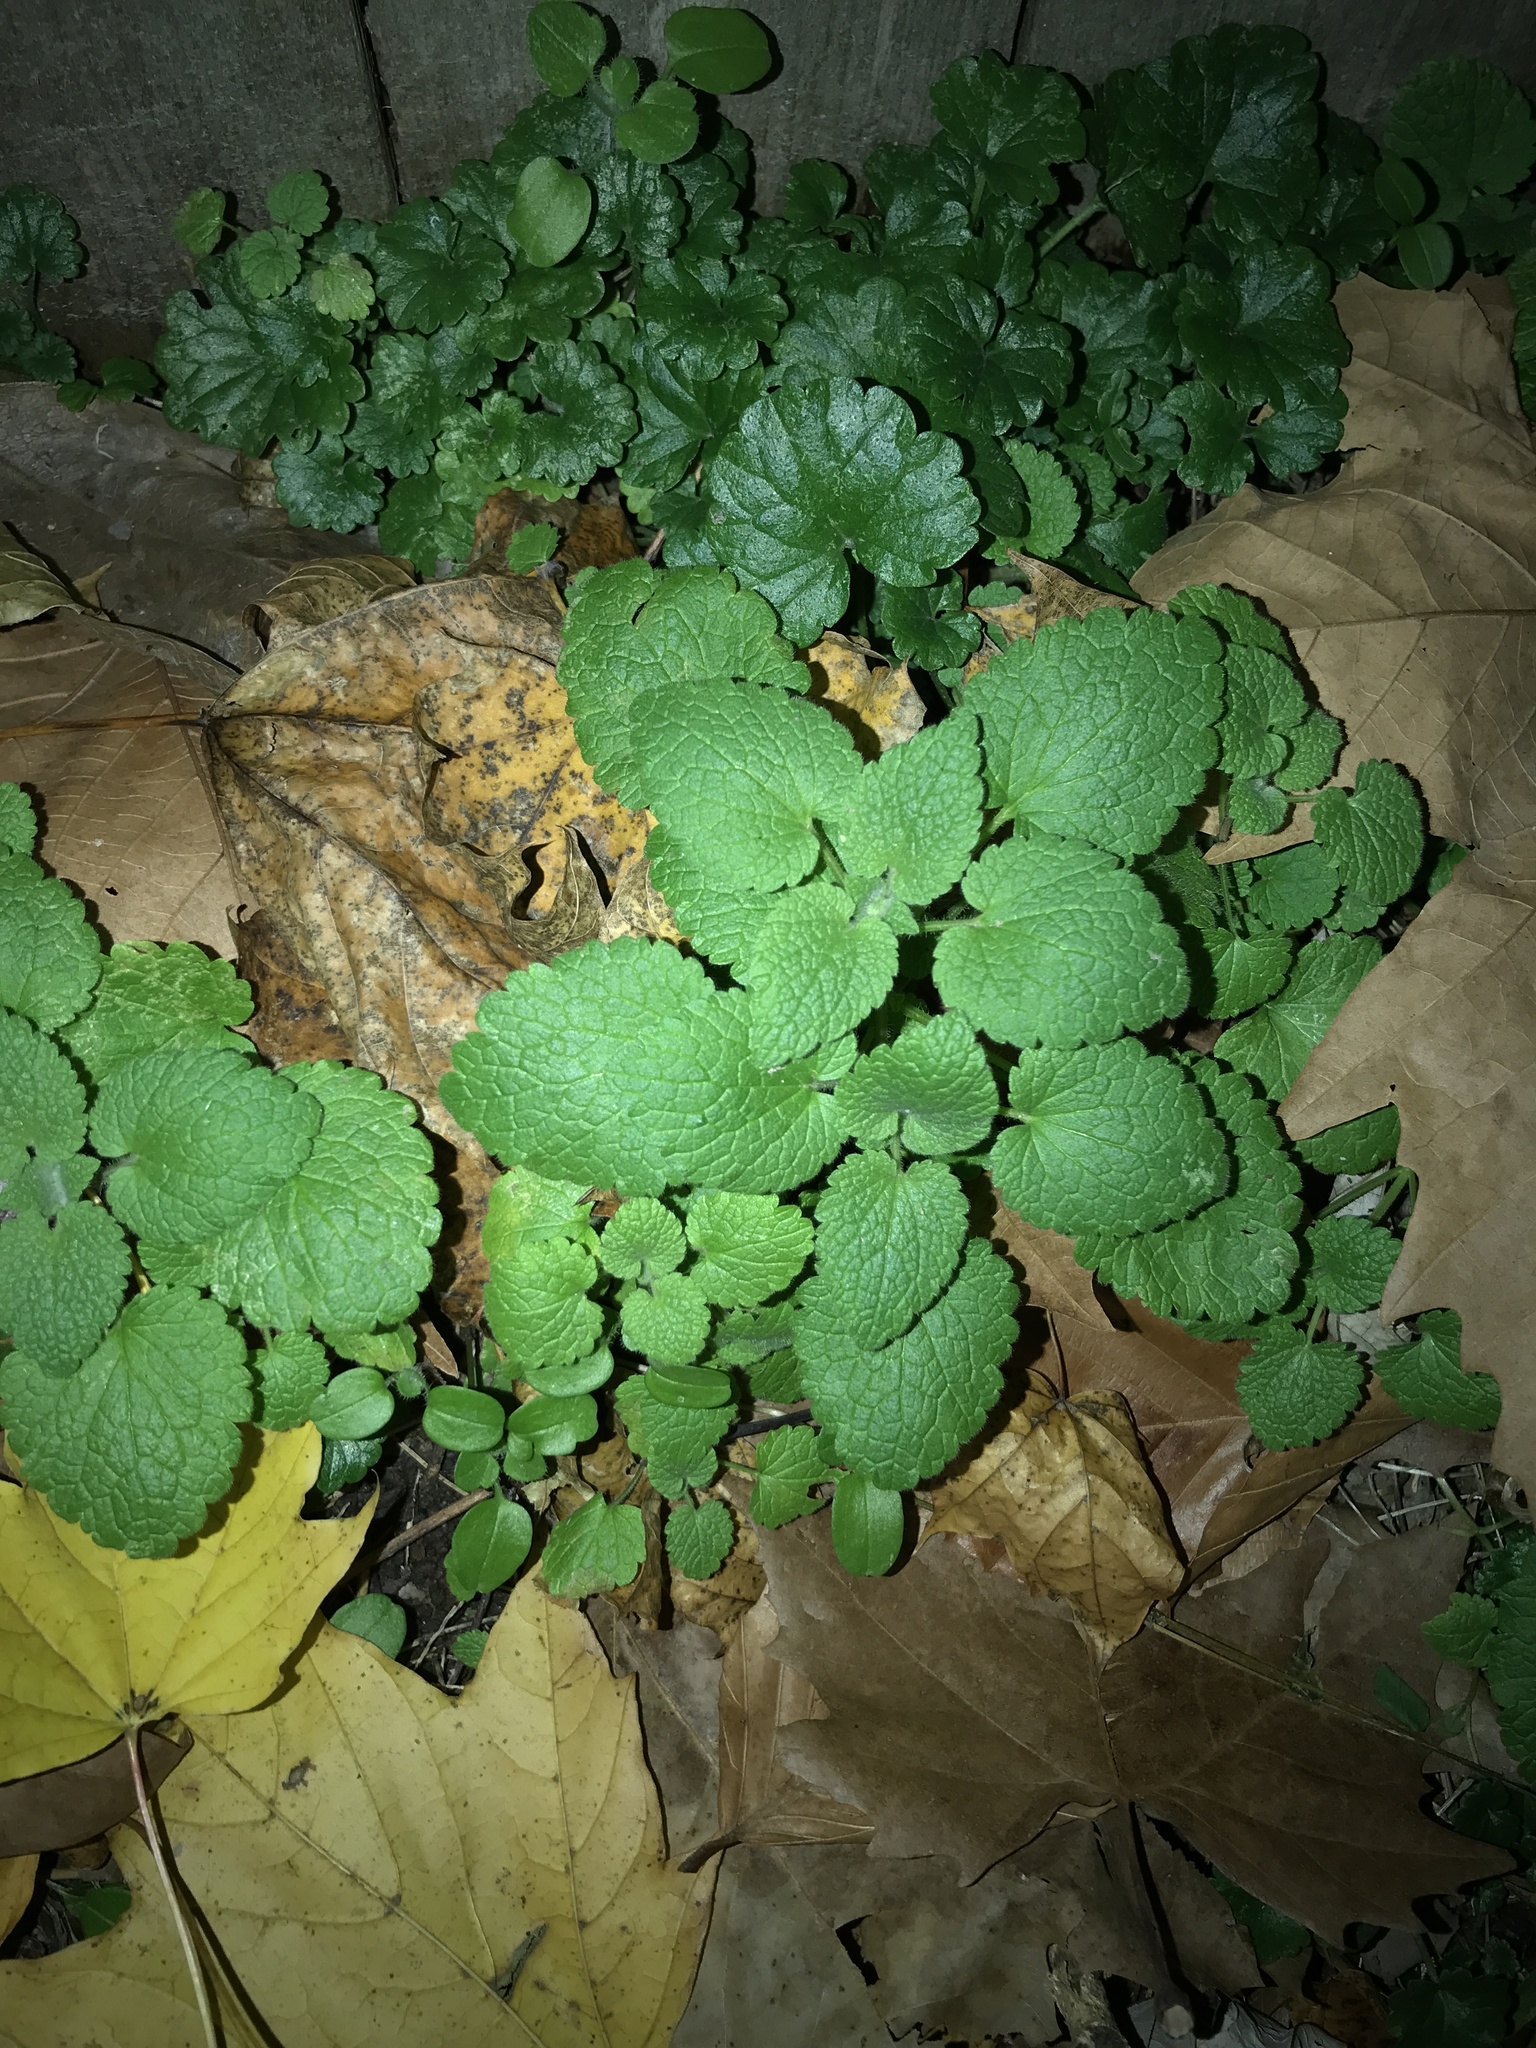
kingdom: Plantae
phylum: Tracheophyta
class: Magnoliopsida
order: Lamiales
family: Lamiaceae
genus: Lamium
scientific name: Lamium purpureum
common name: Red dead-nettle
